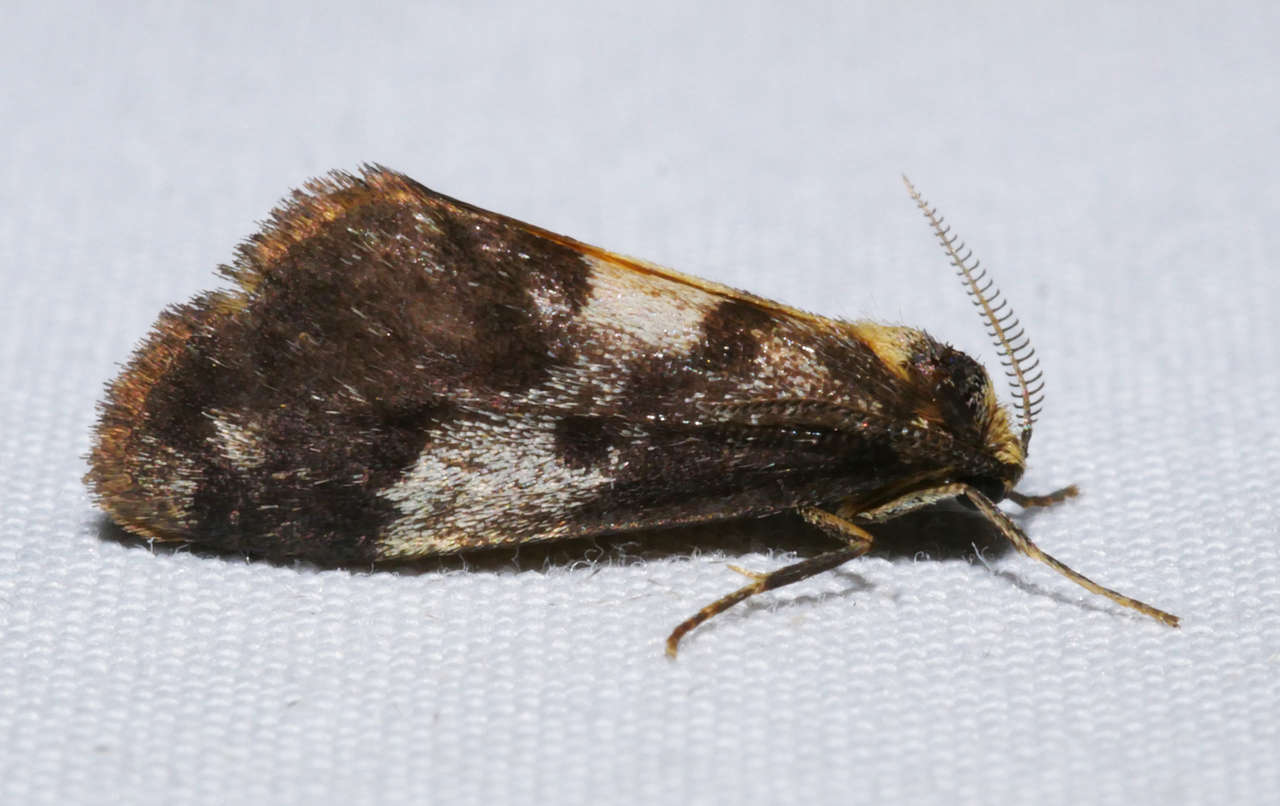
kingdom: Animalia
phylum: Arthropoda
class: Insecta
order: Lepidoptera
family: Erebidae
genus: Anestia
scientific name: Anestia semiochrea
